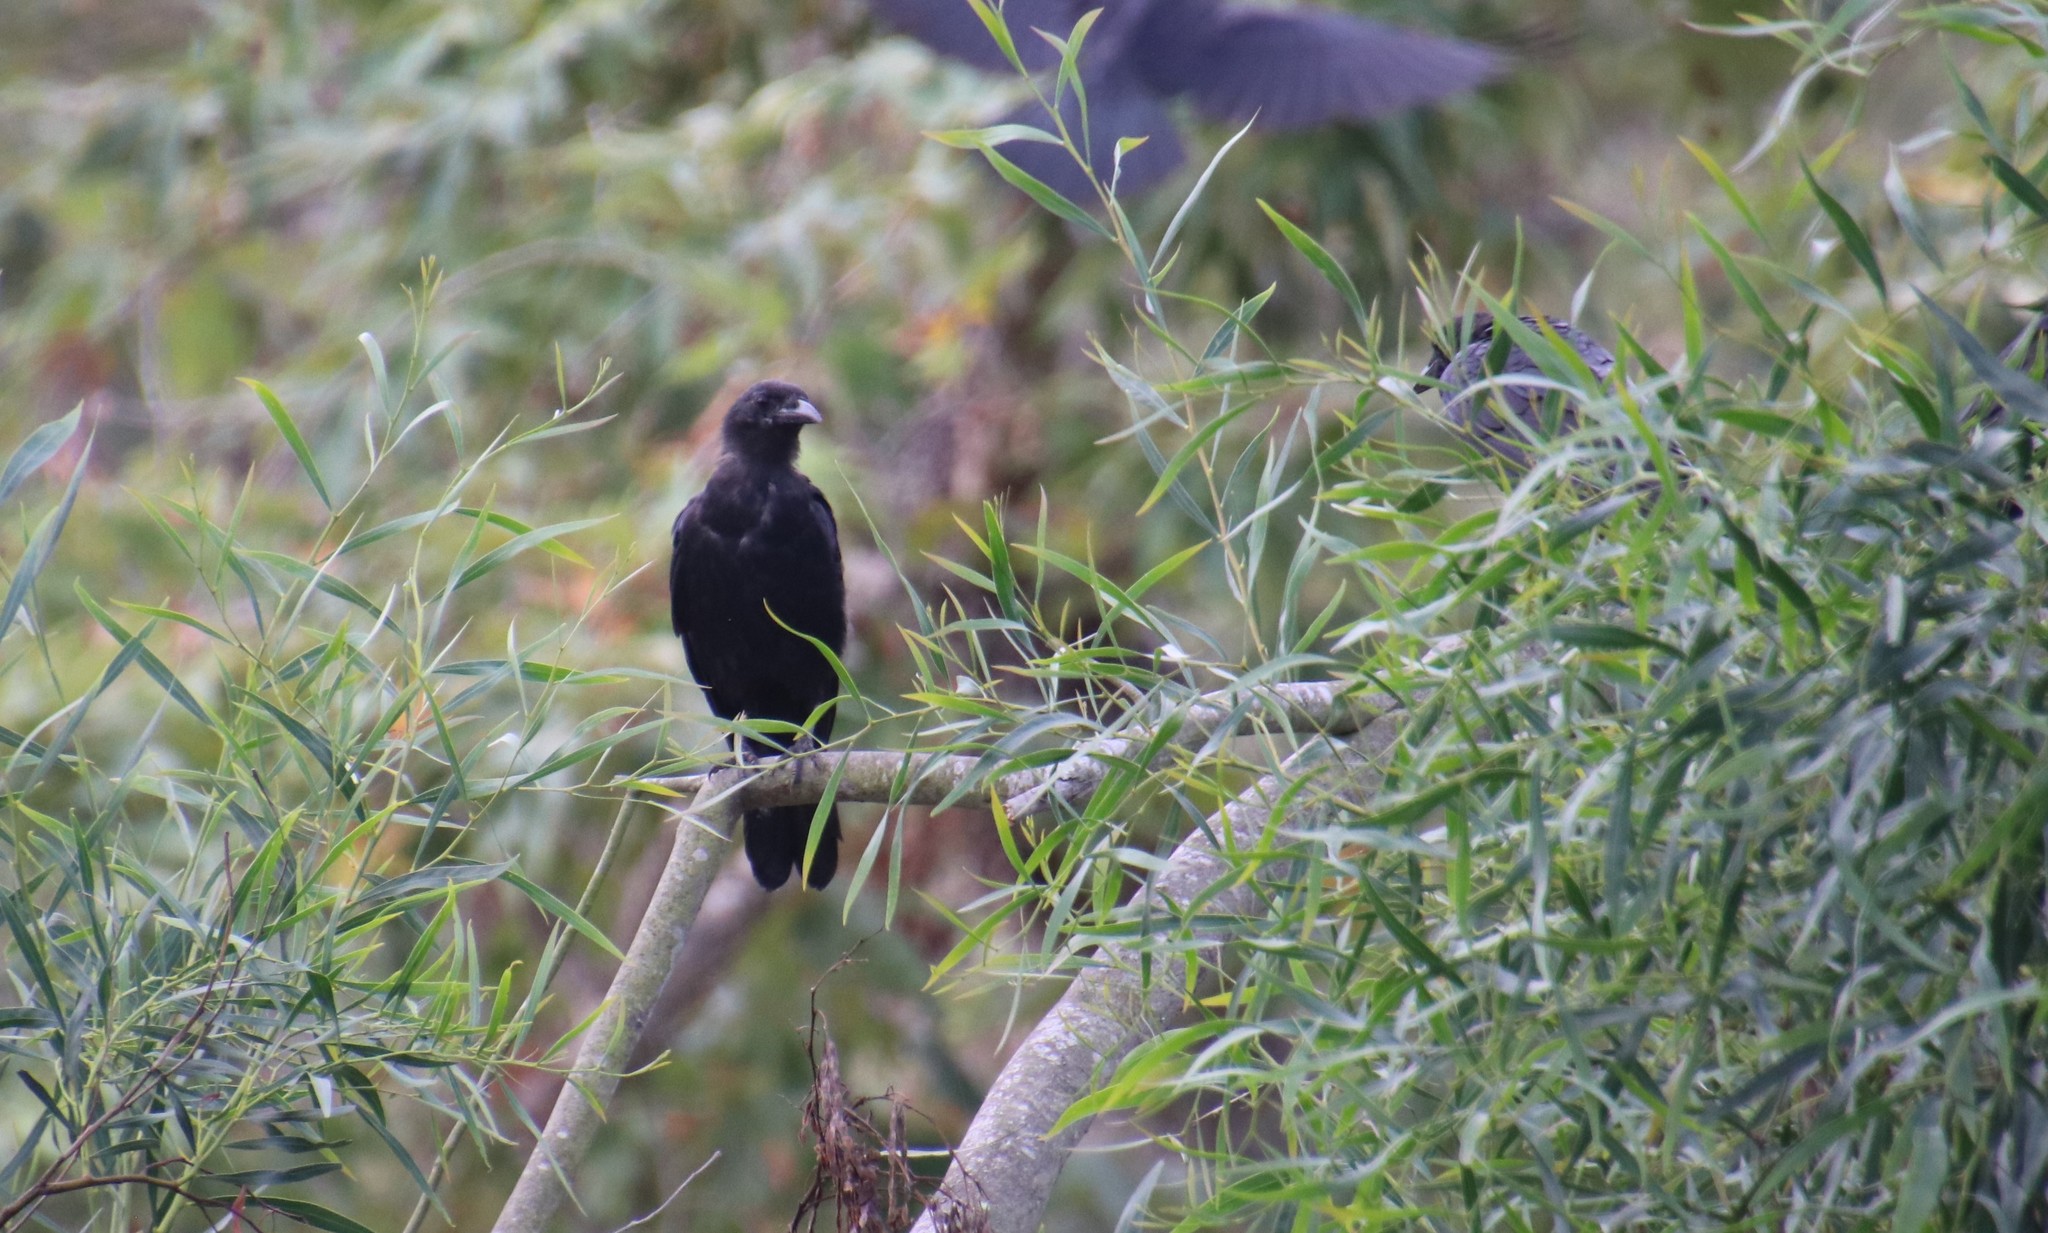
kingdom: Animalia
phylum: Chordata
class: Aves
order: Passeriformes
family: Corvidae
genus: Corvus
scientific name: Corvus brachyrhynchos
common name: American crow
